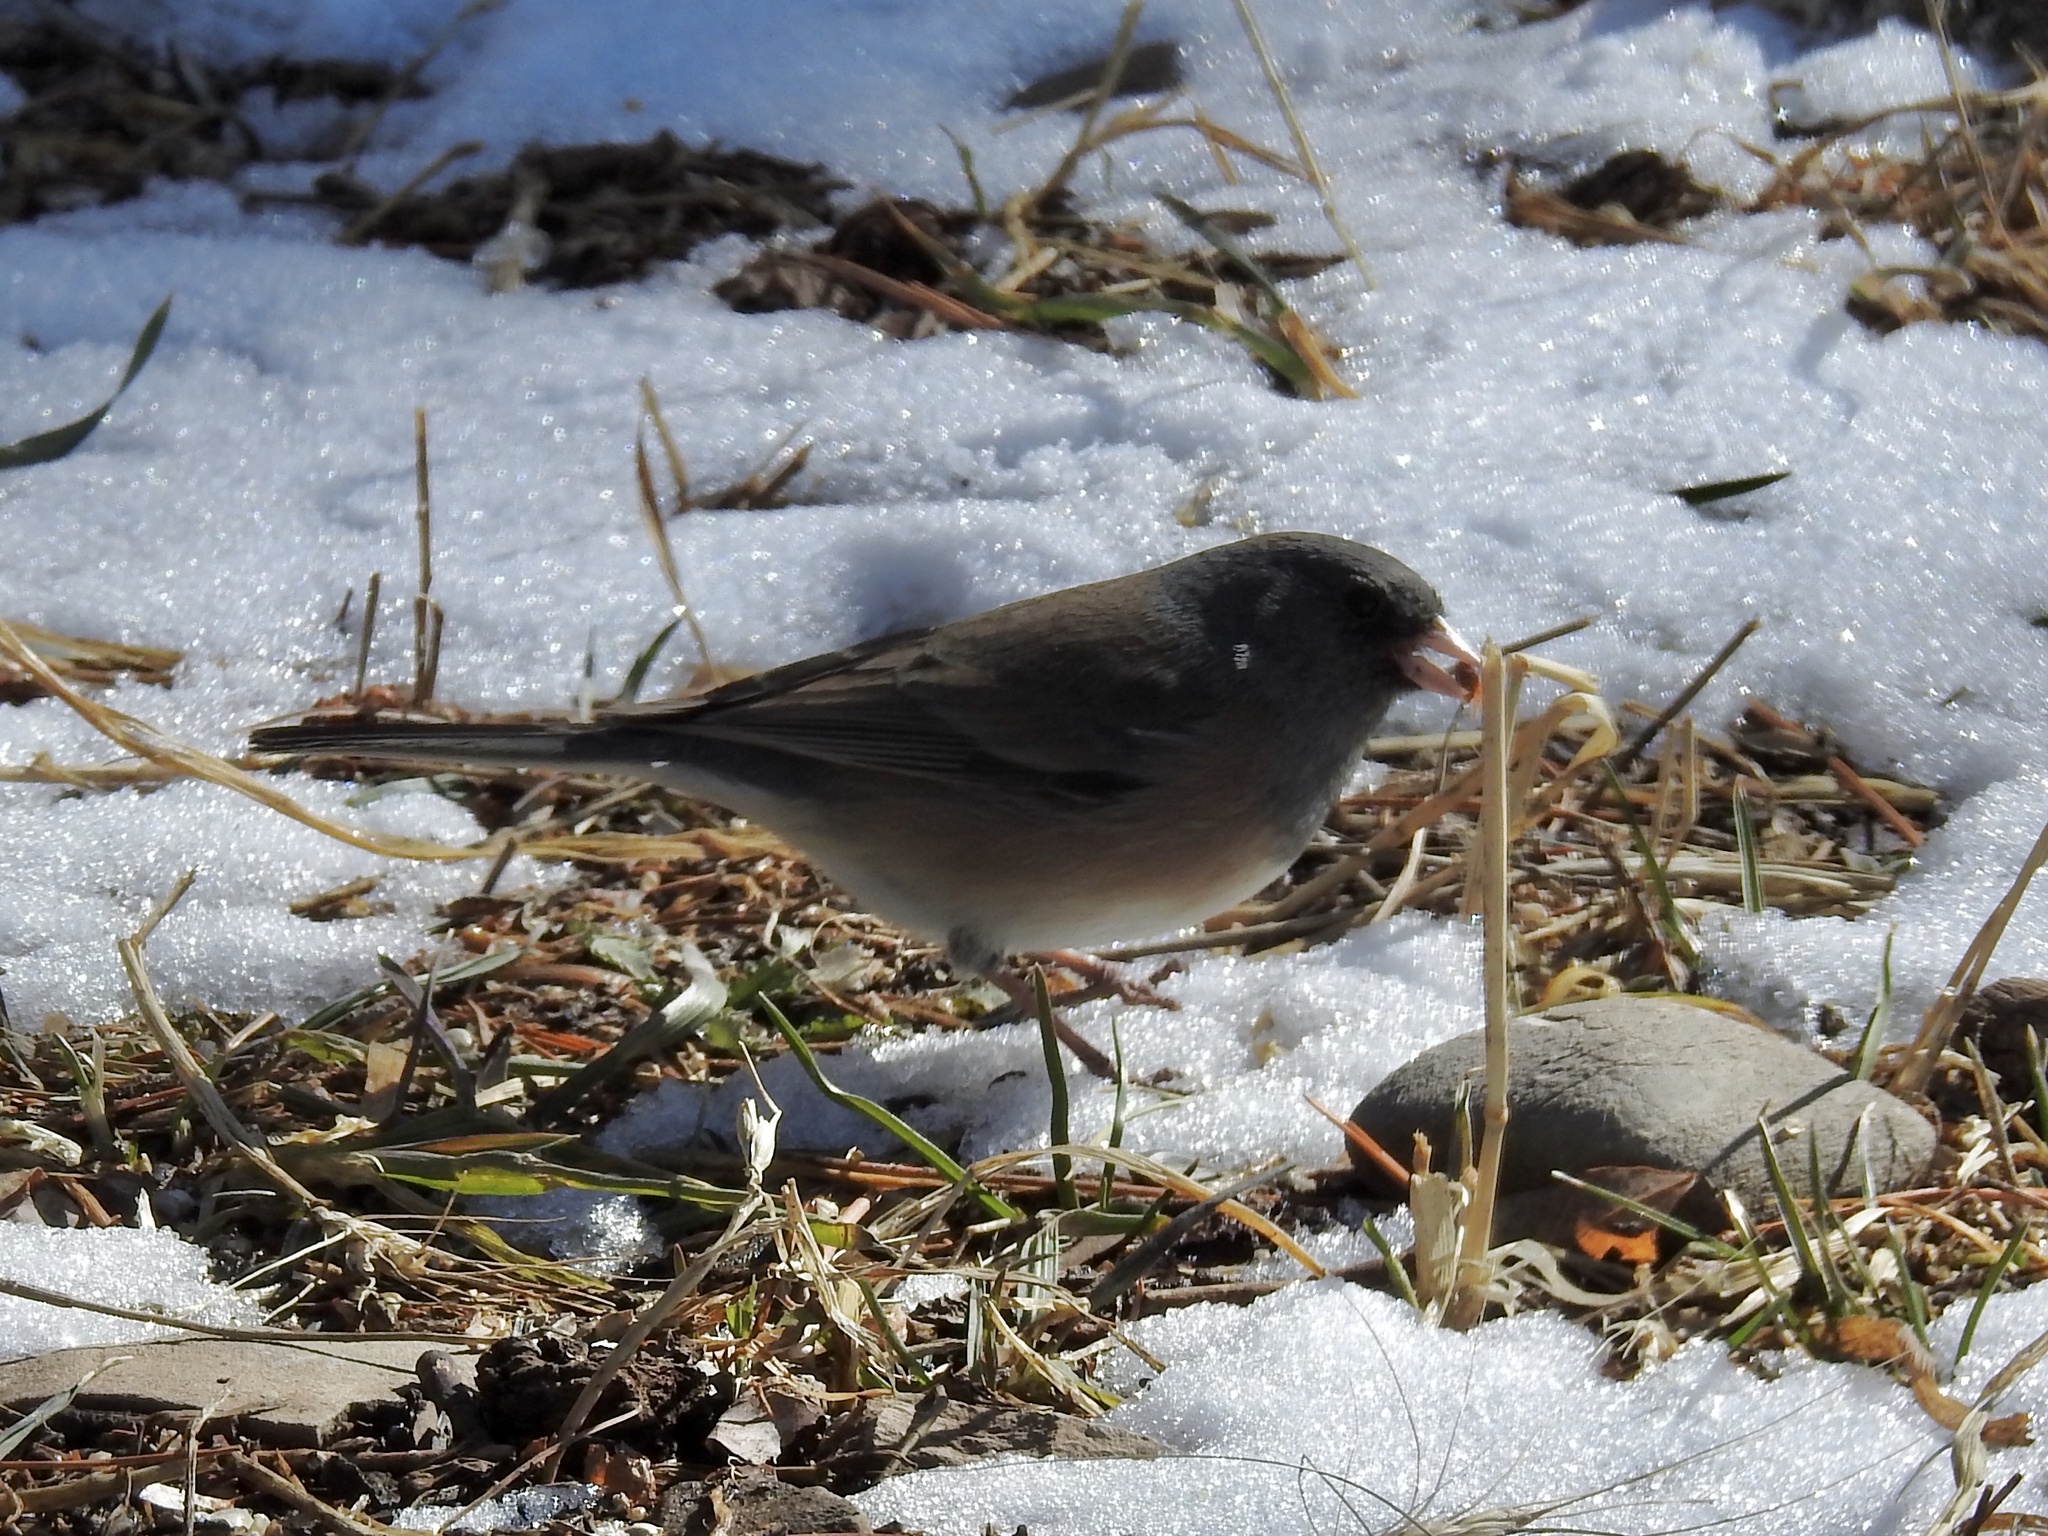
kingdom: Animalia
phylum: Chordata
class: Aves
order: Passeriformes
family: Passerellidae
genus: Junco
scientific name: Junco hyemalis
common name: Dark-eyed junco
